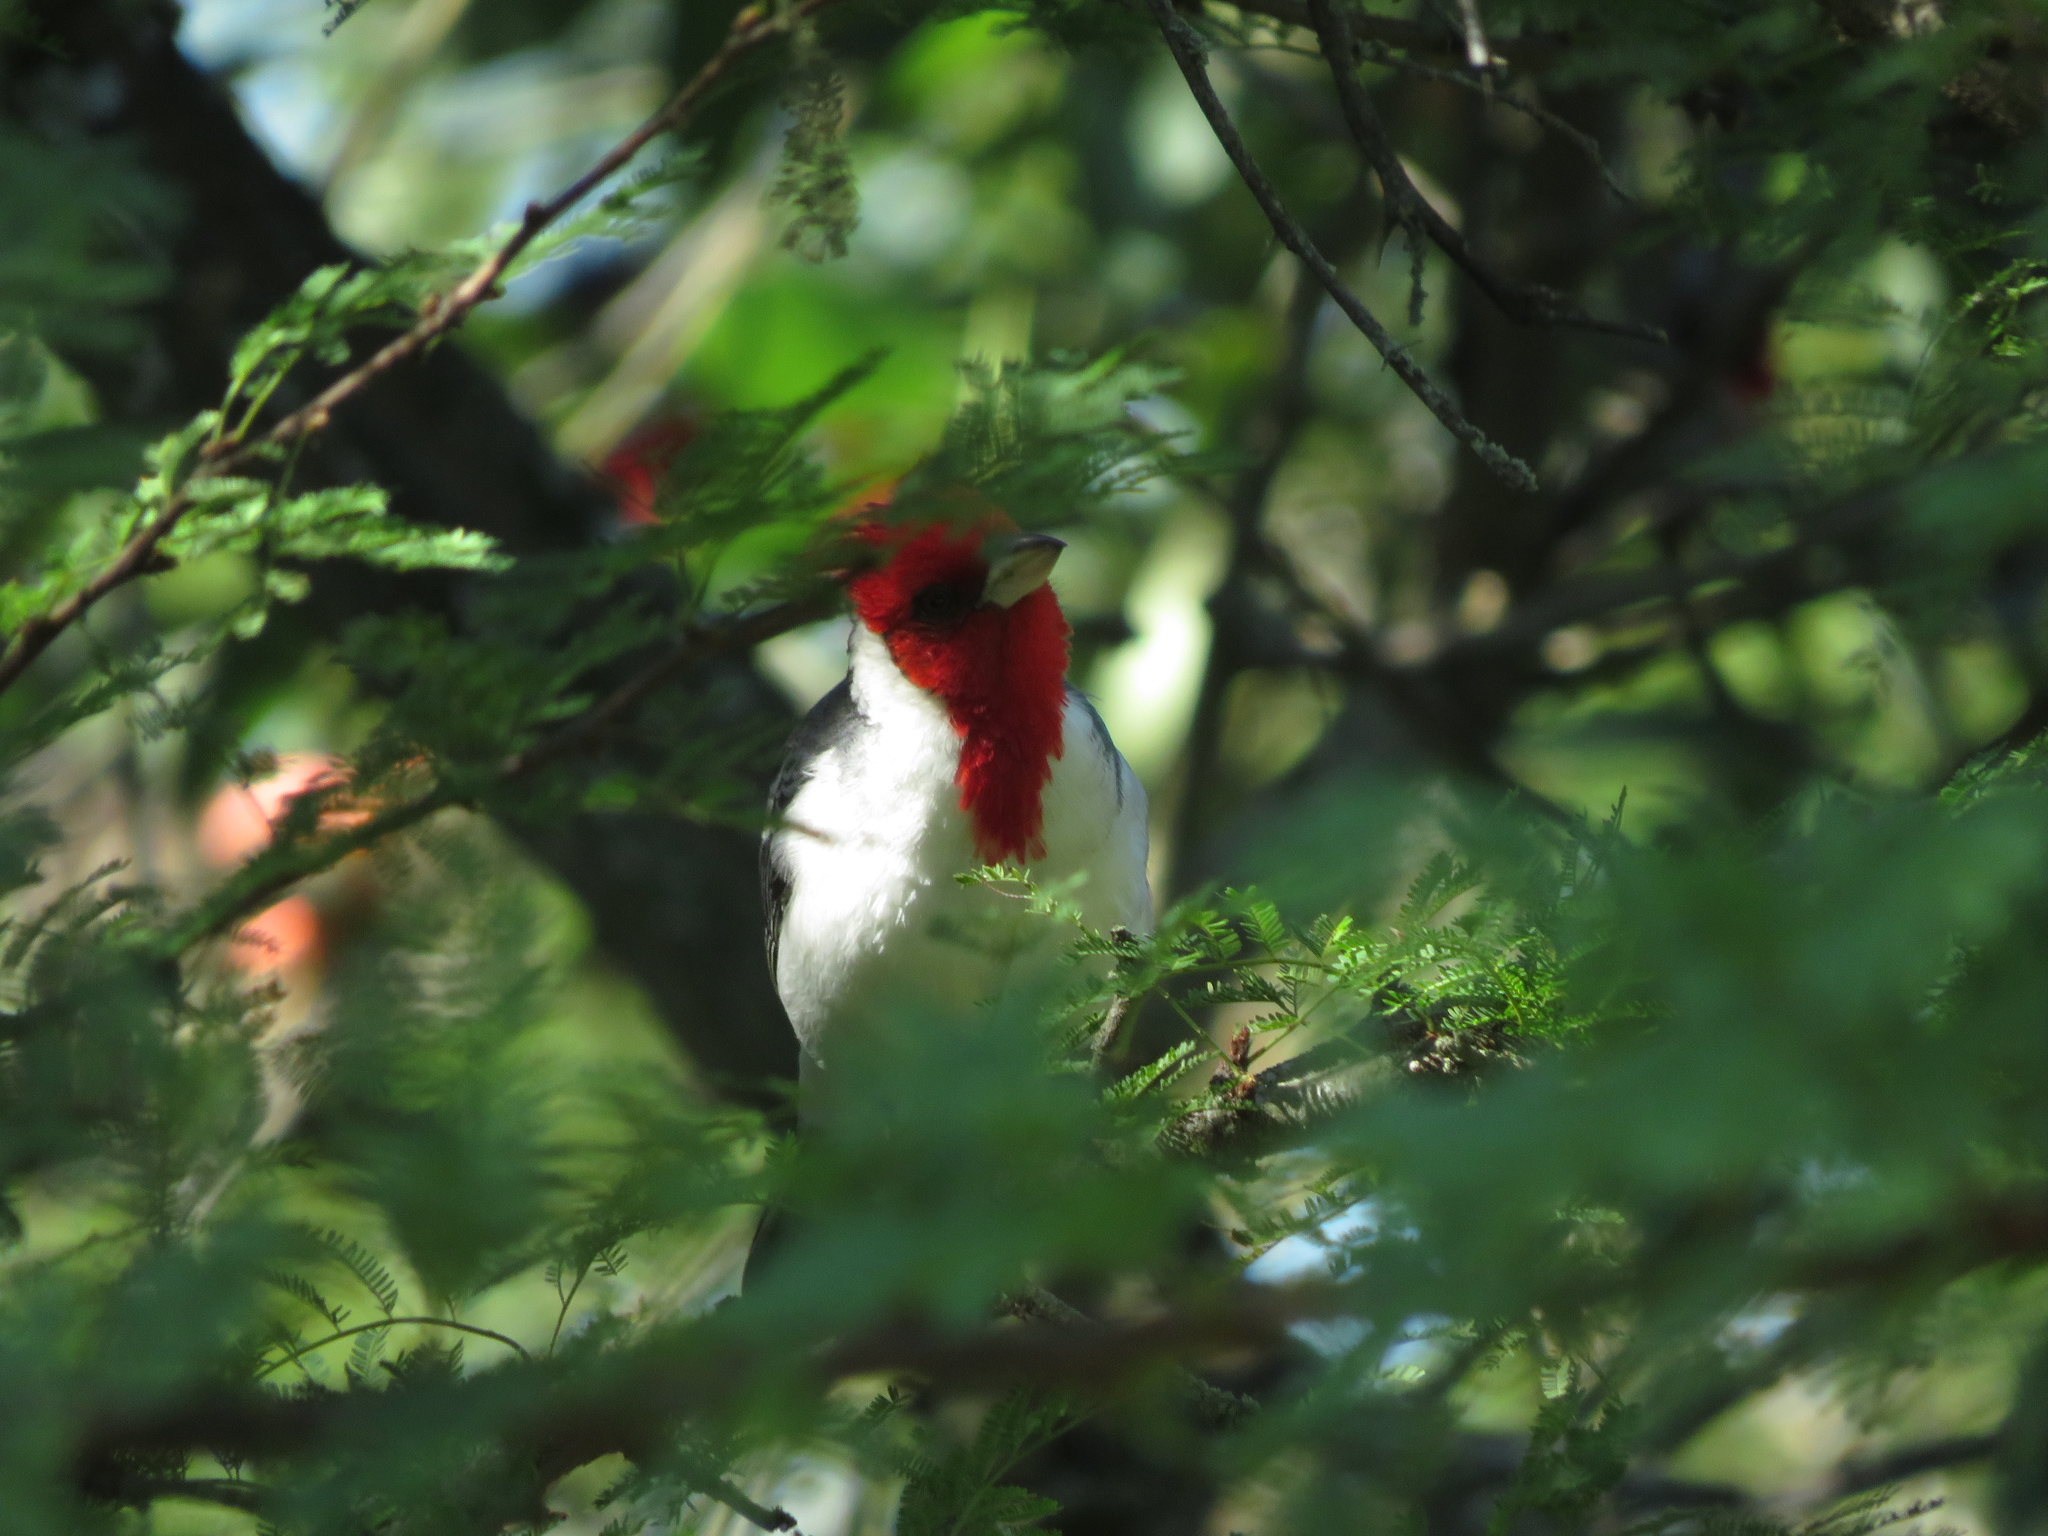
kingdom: Animalia
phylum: Chordata
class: Aves
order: Passeriformes
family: Thraupidae
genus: Paroaria
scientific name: Paroaria coronata
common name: Red-crested cardinal
